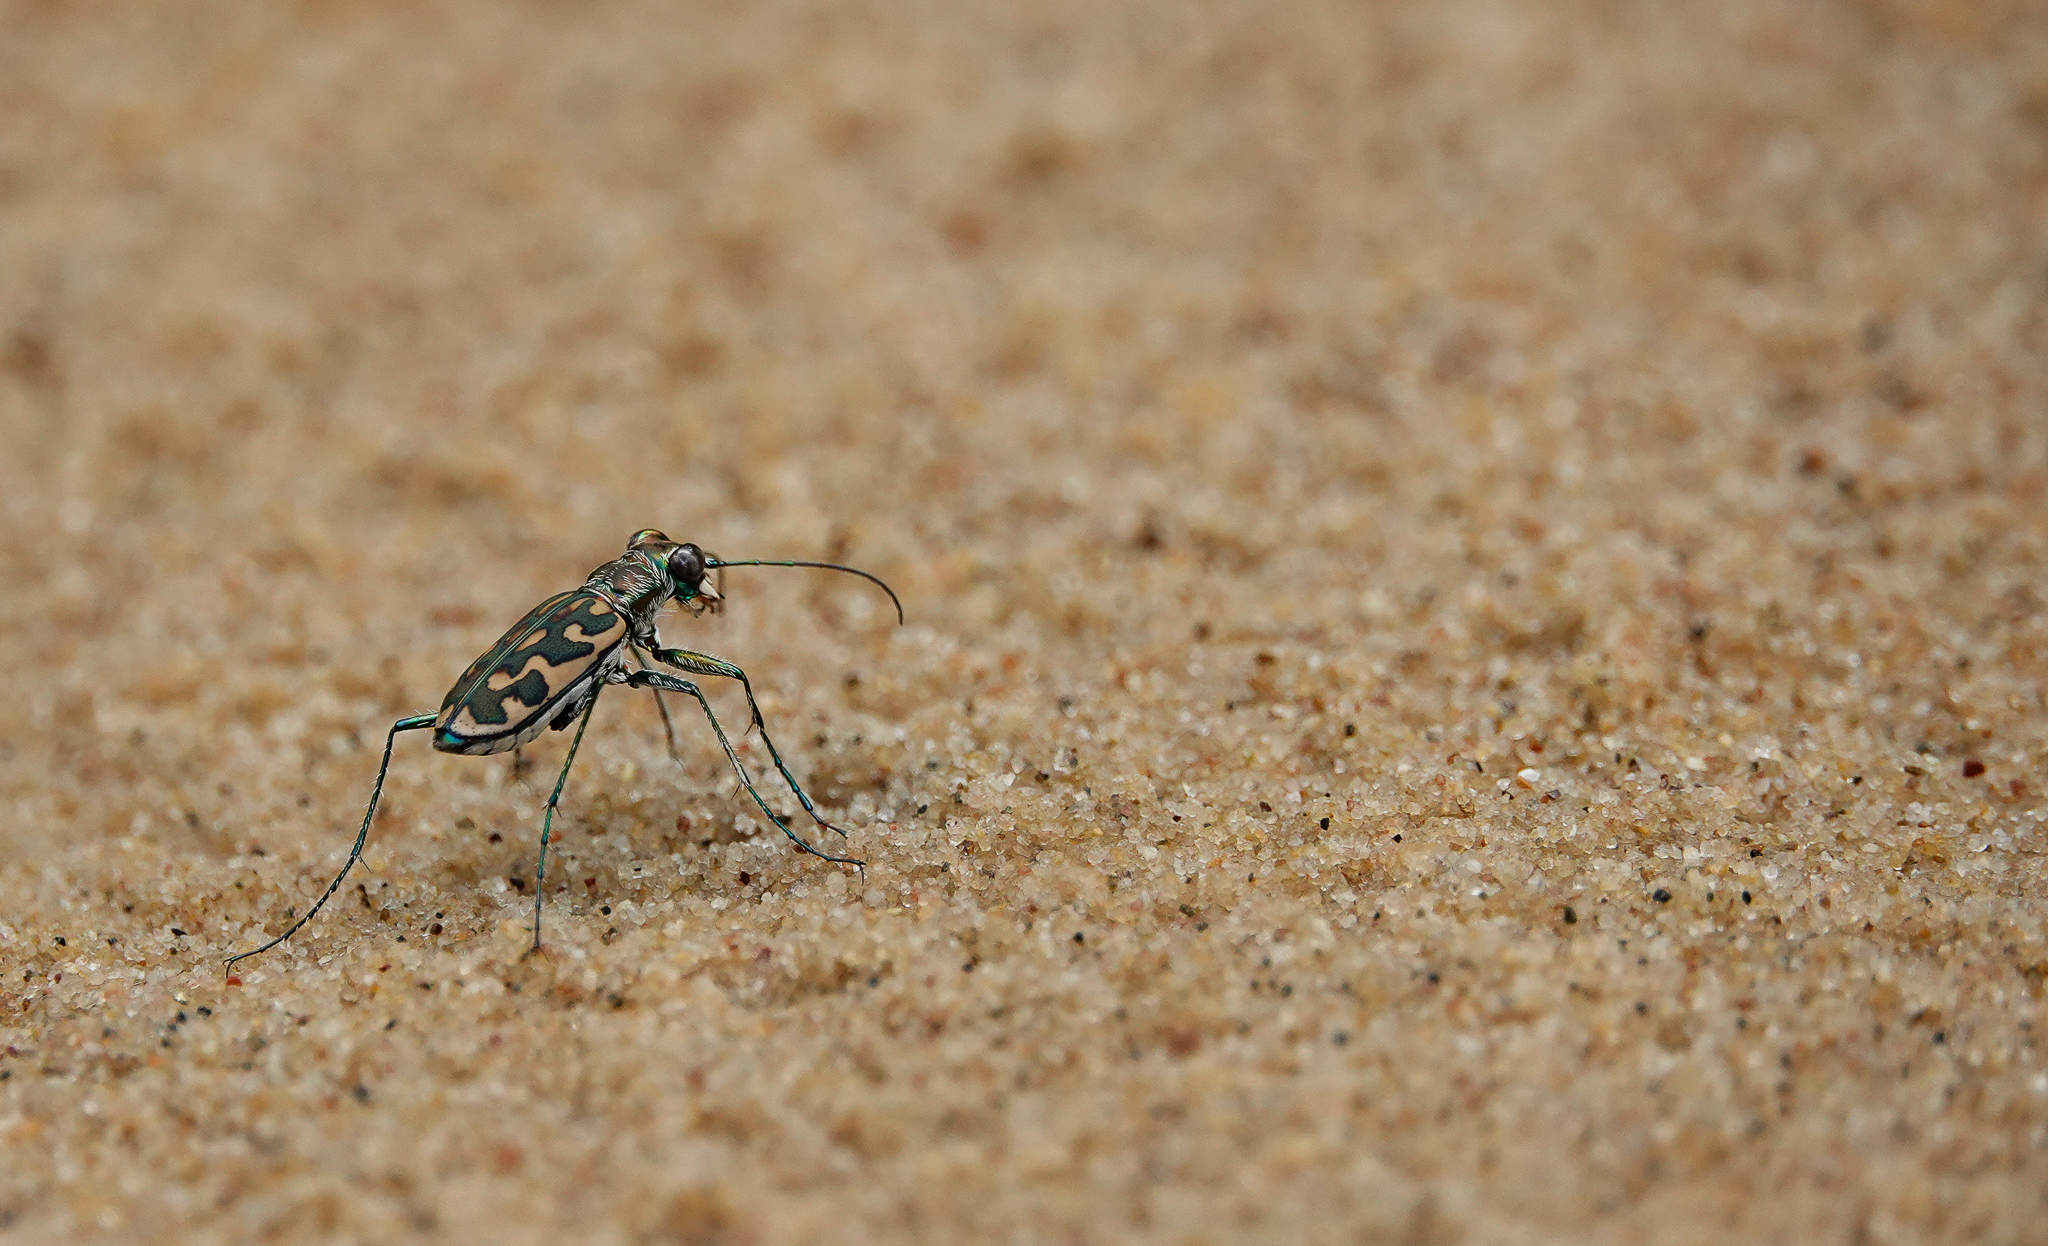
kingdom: Animalia
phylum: Arthropoda
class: Insecta
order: Coleoptera
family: Carabidae
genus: Lophyra
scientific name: Lophyra cancellata
